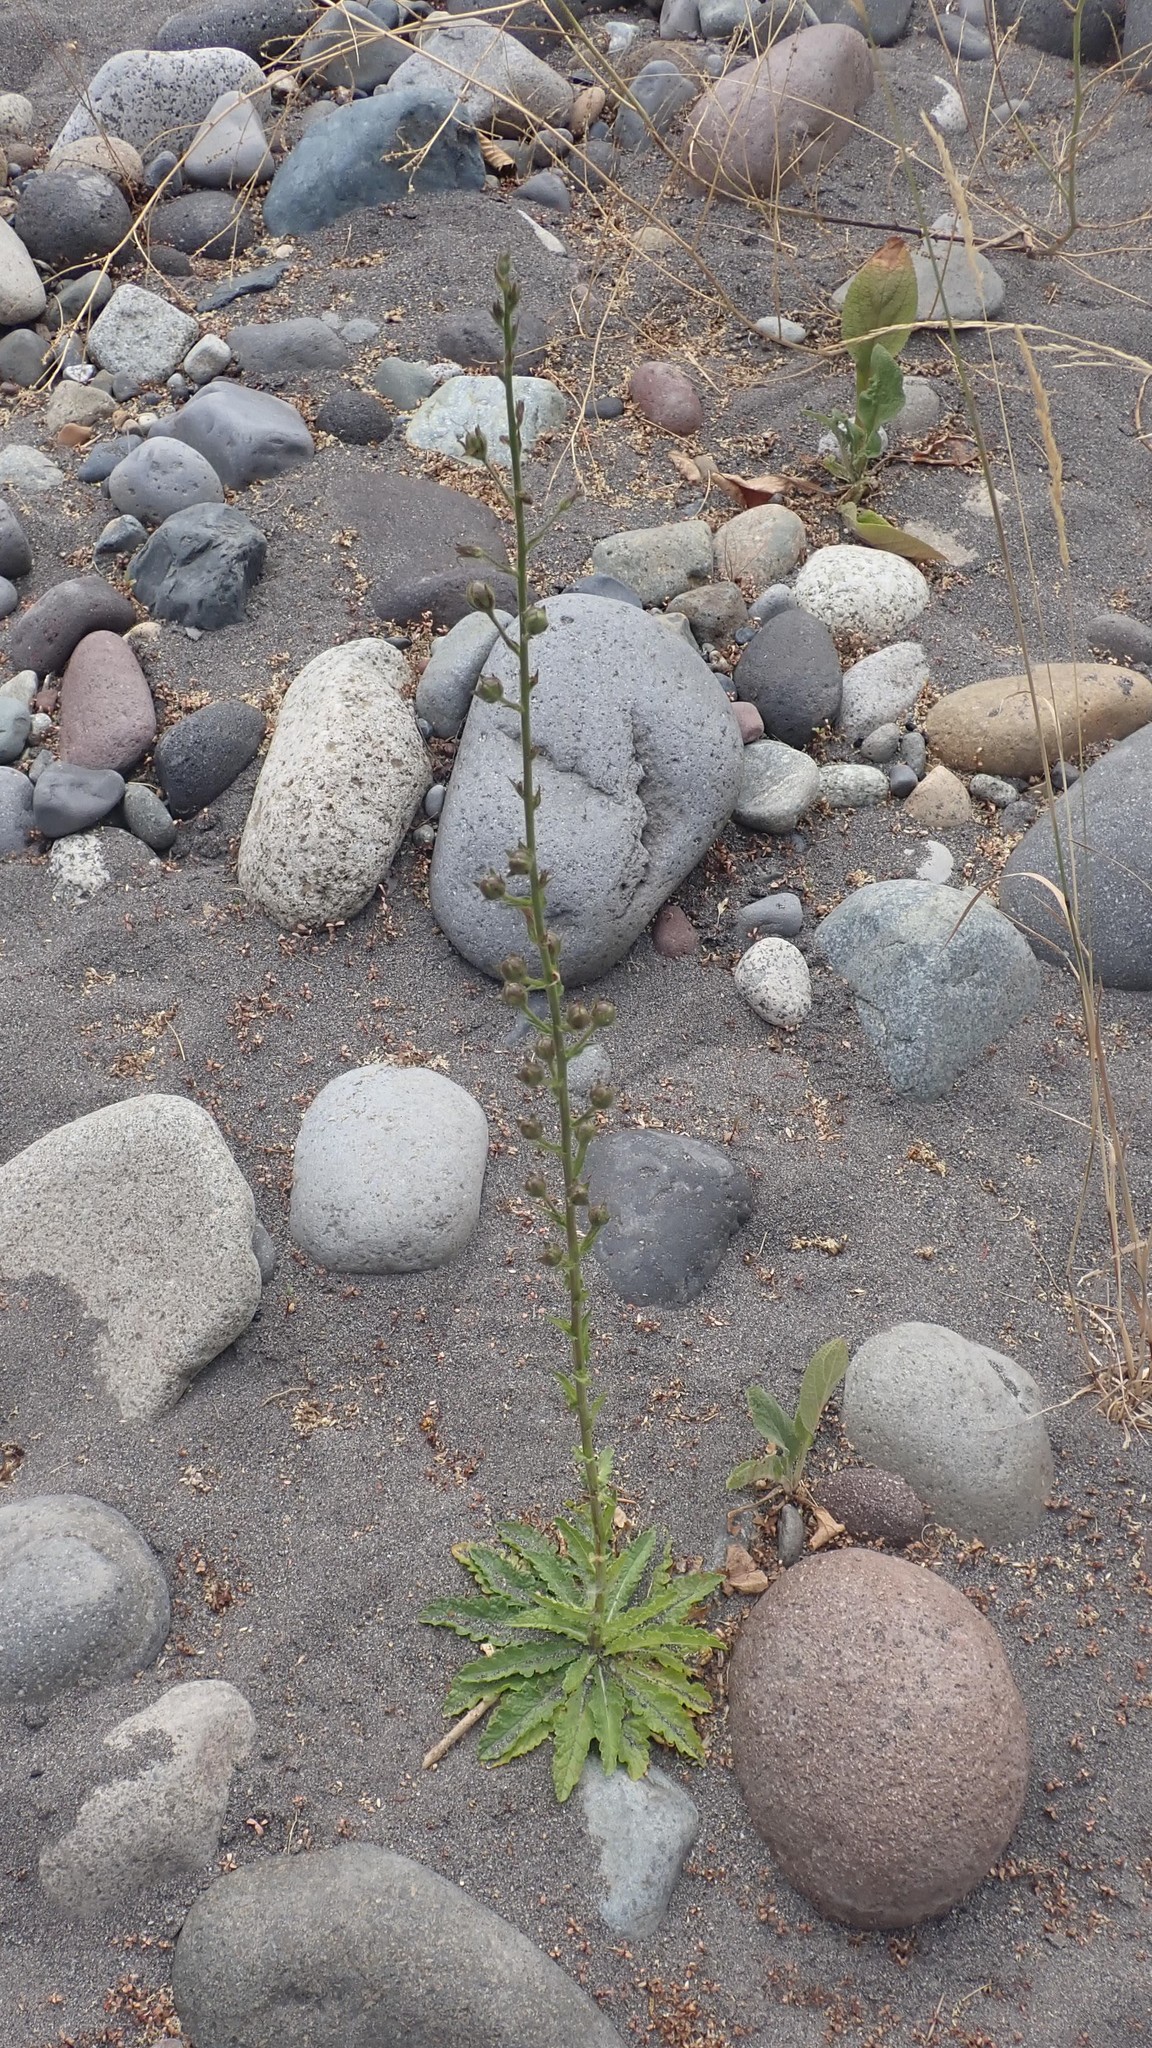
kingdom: Plantae
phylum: Tracheophyta
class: Magnoliopsida
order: Lamiales
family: Scrophulariaceae
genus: Verbascum
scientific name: Verbascum blattaria
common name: Moth mullein
